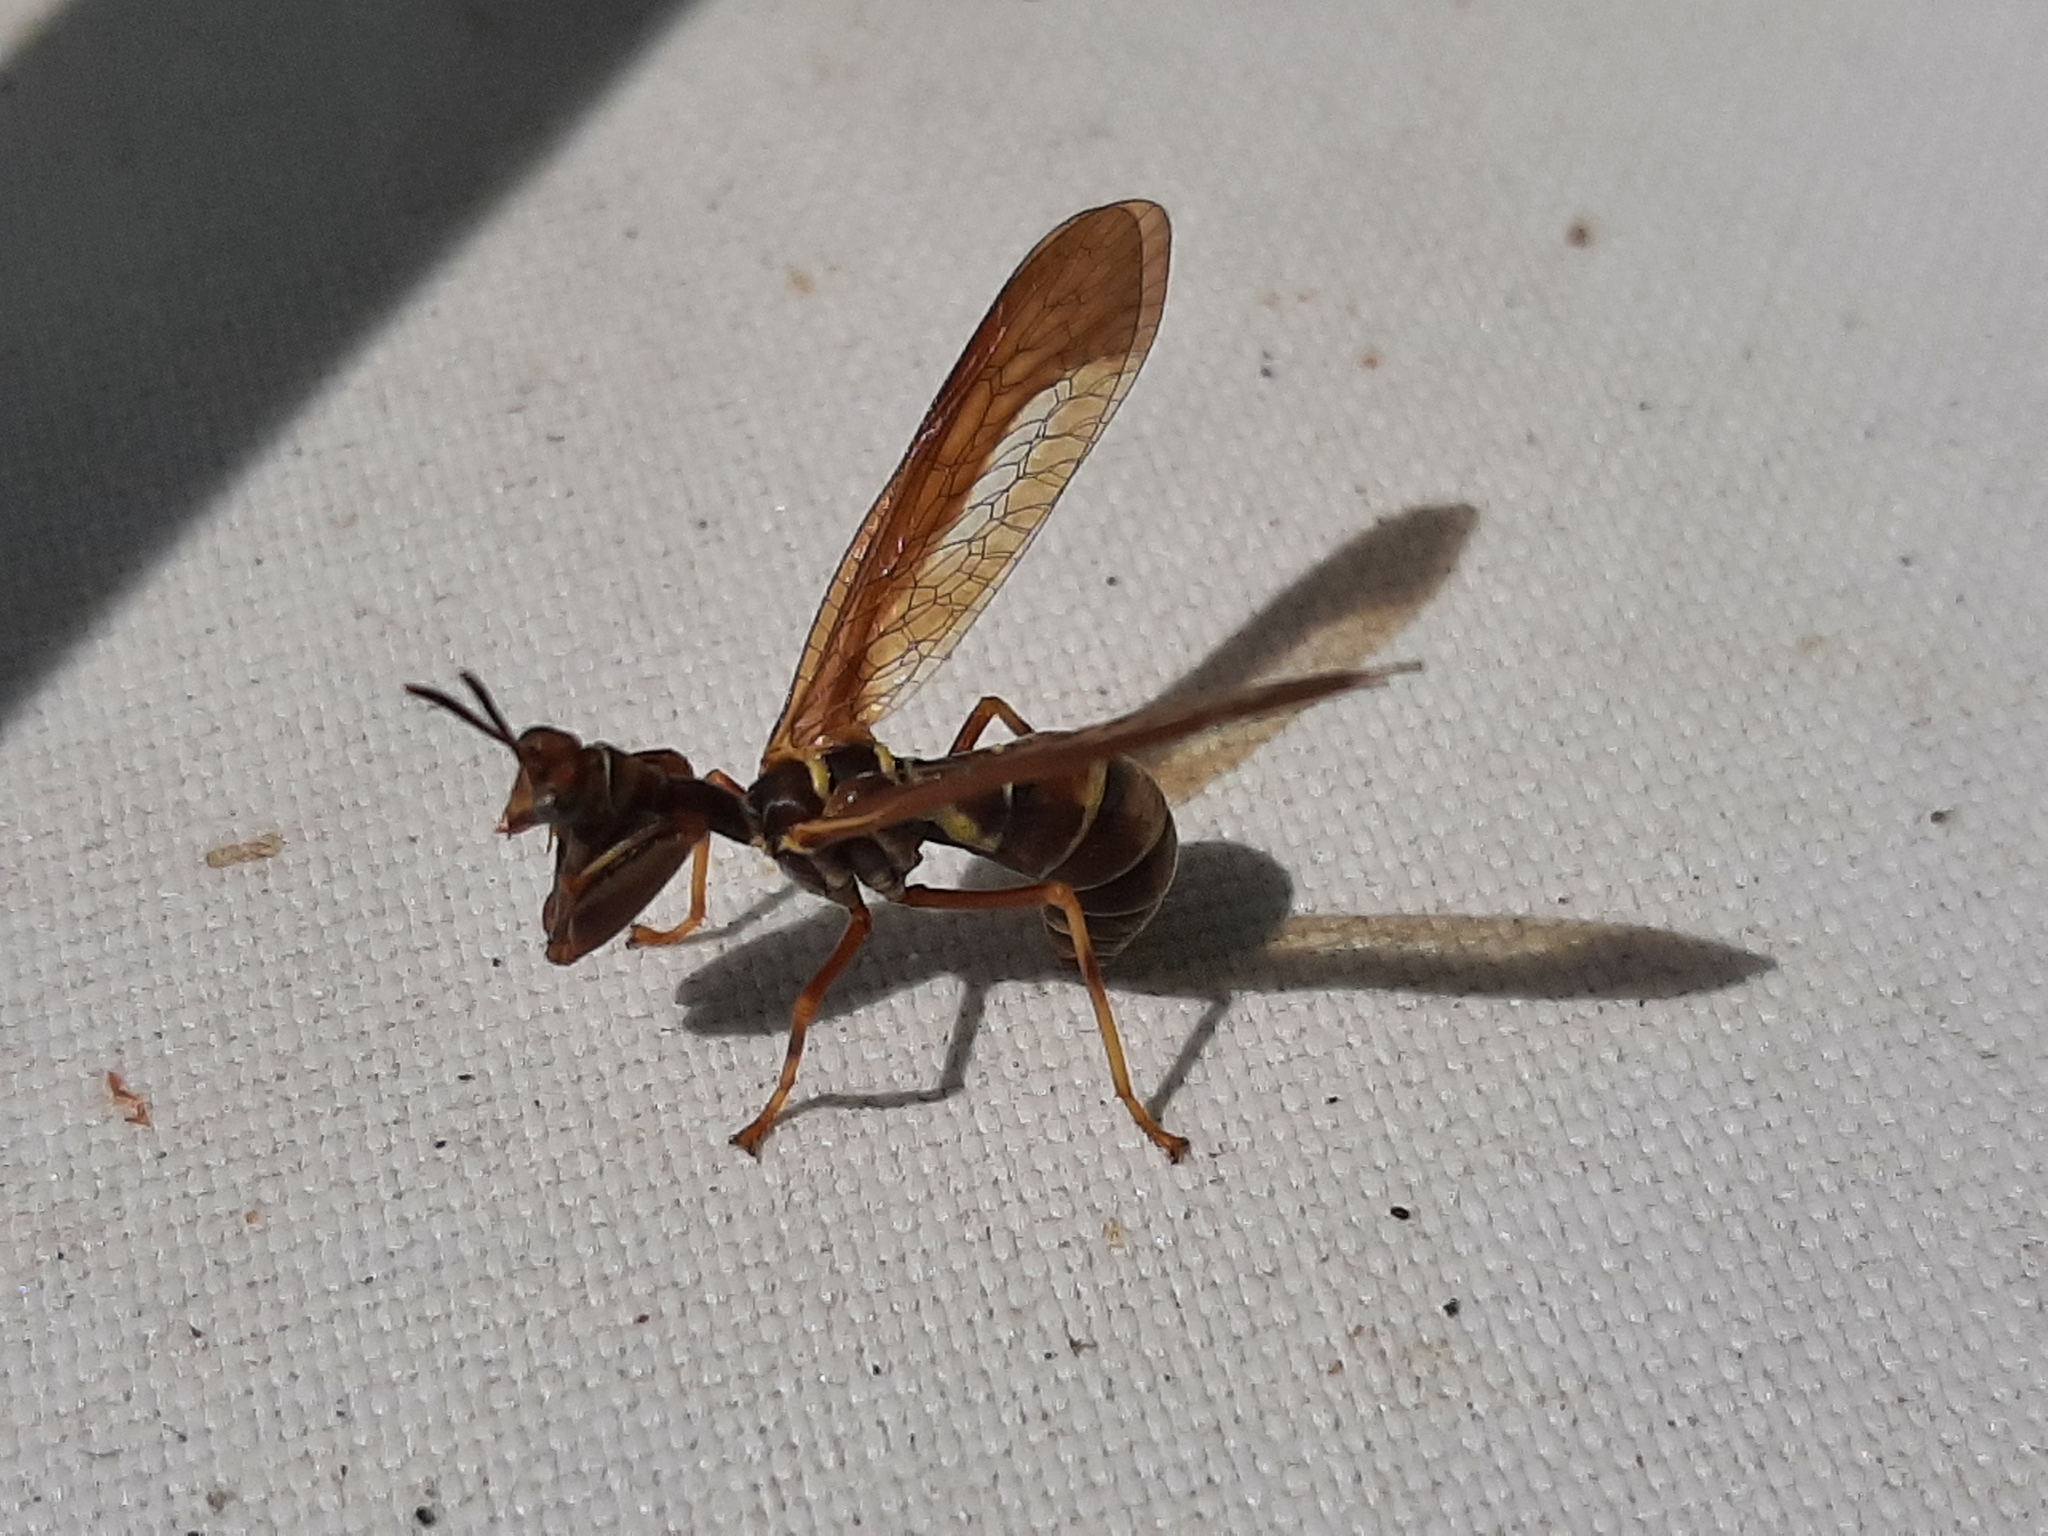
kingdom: Animalia
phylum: Arthropoda
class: Insecta
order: Neuroptera
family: Mantispidae
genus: Climaciella
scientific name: Climaciella brunnea
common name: Brown wasp mantidfly
